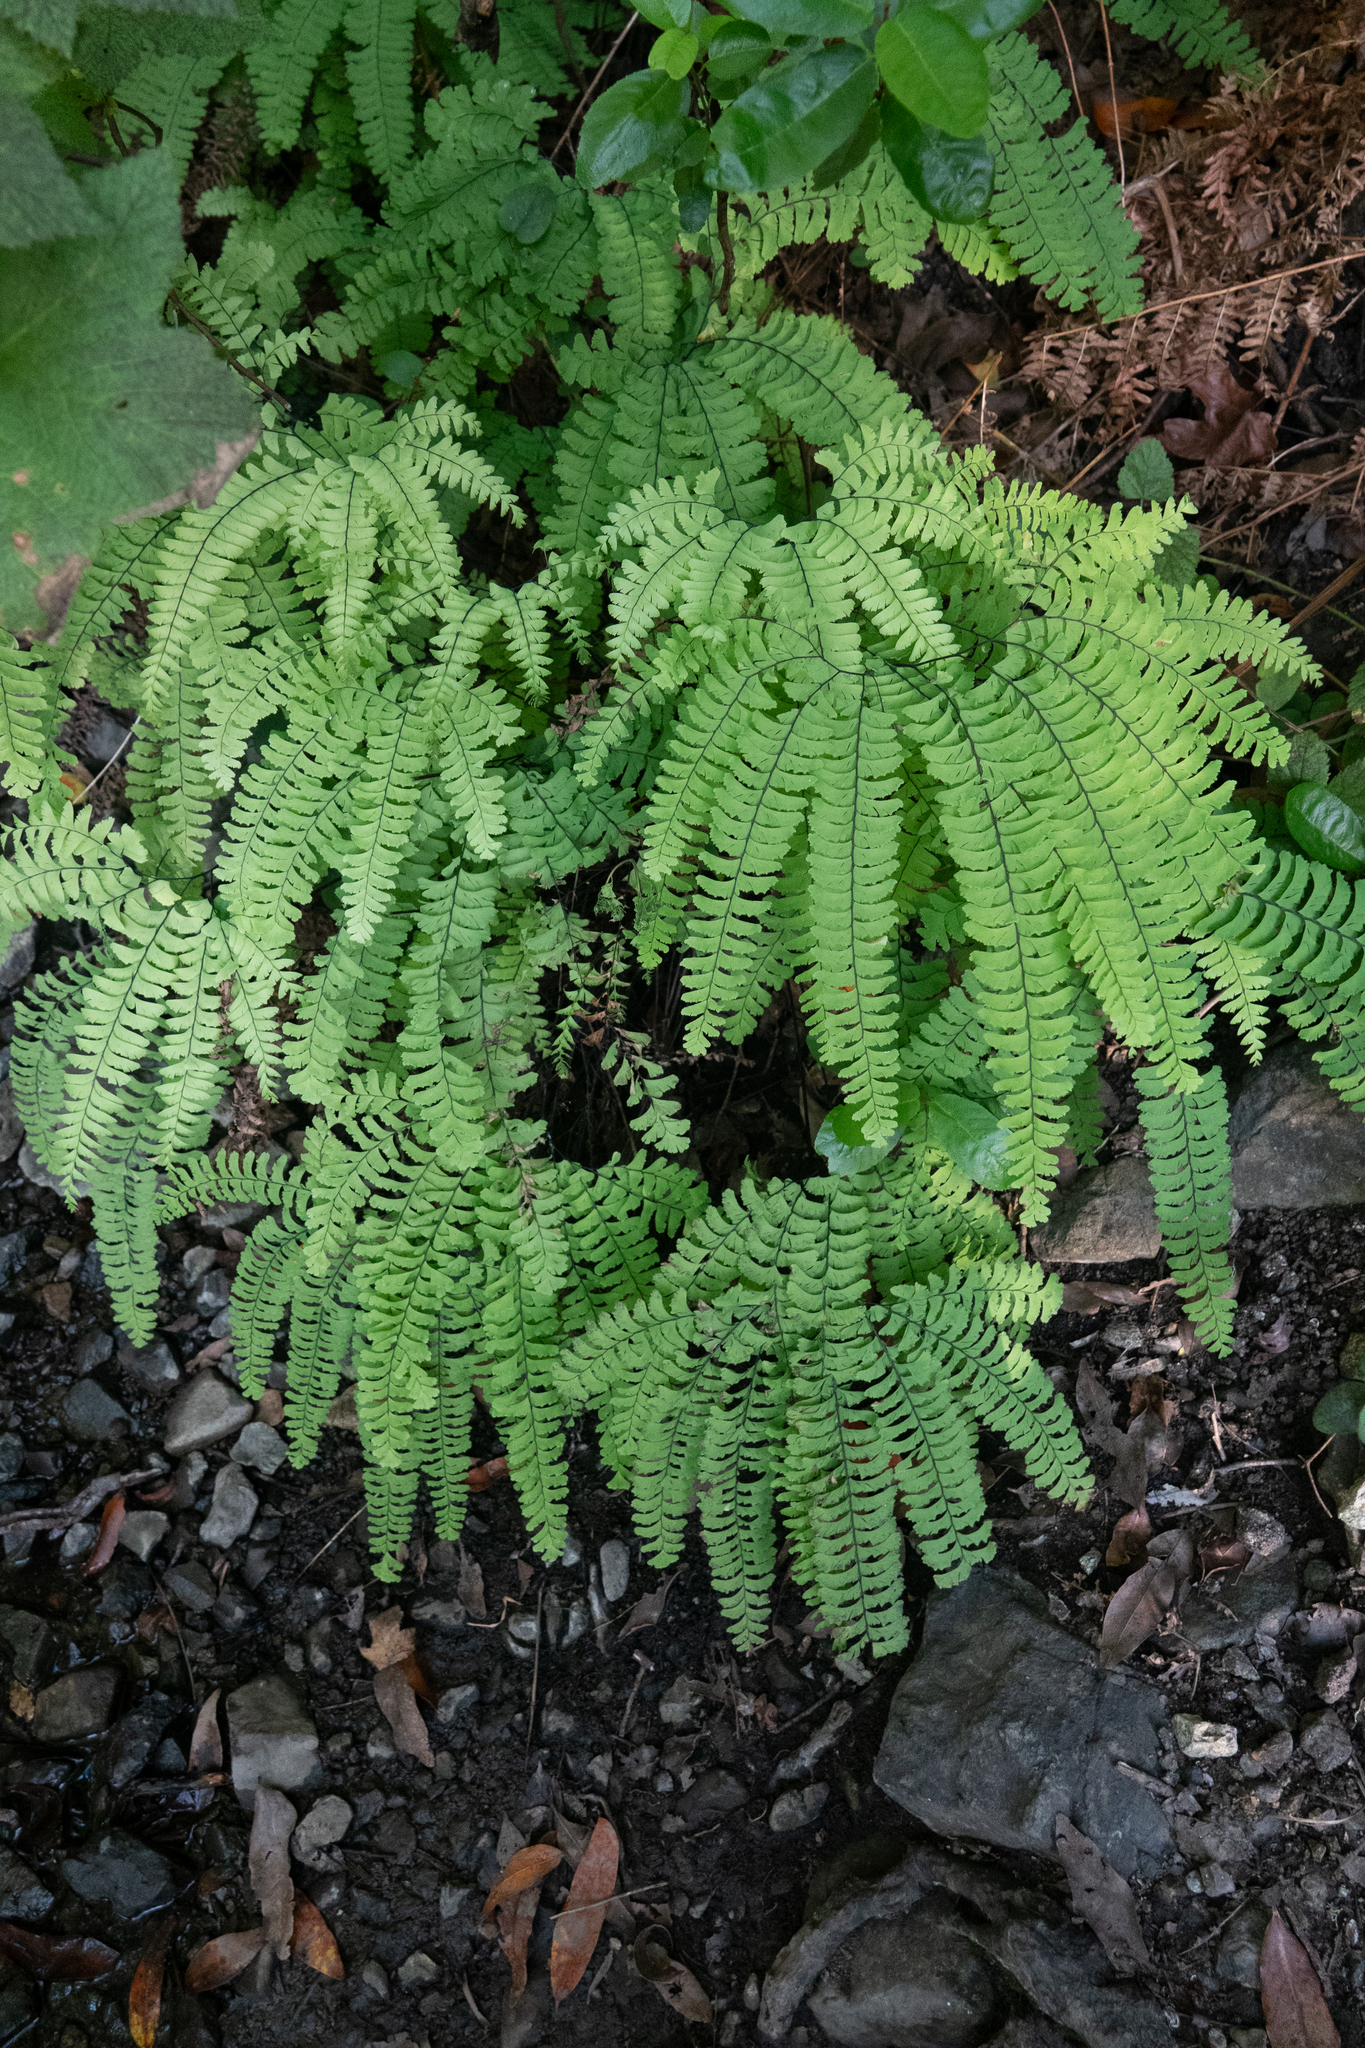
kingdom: Plantae
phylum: Tracheophyta
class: Polypodiopsida
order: Polypodiales
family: Pteridaceae
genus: Adiantum
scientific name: Adiantum aleuticum
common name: Aleutian maidenhair fern
